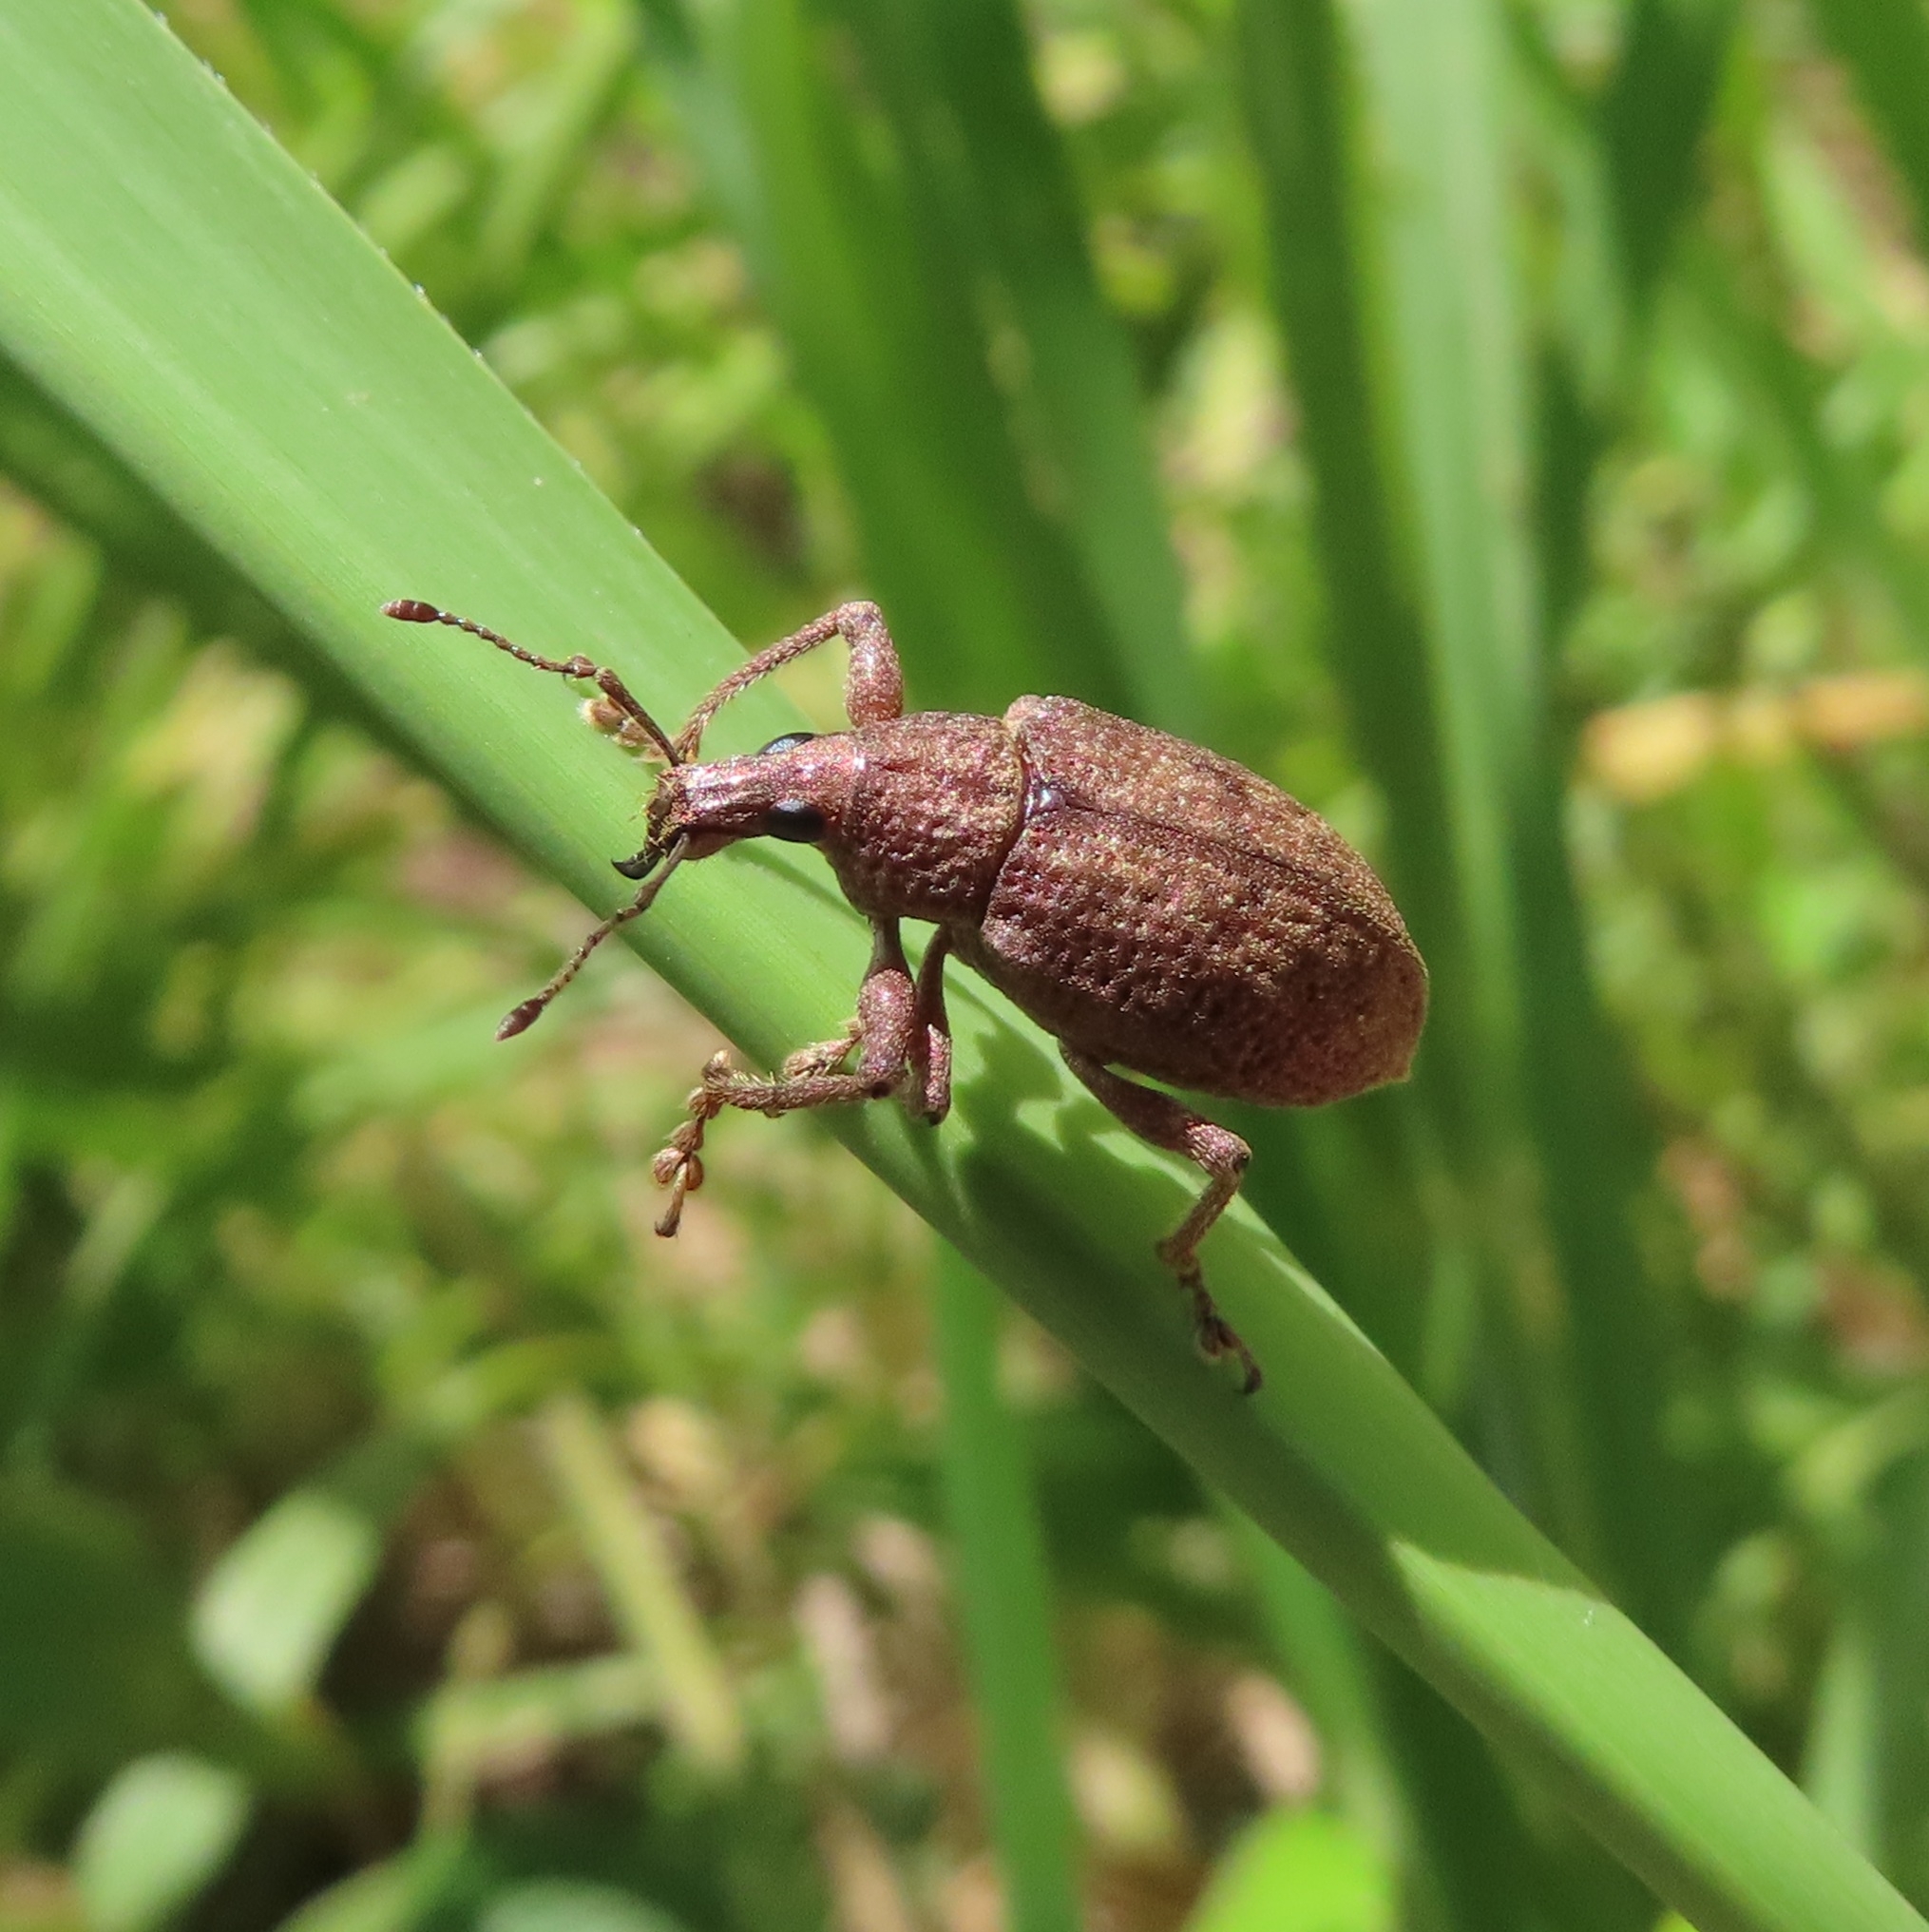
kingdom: Animalia
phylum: Arthropoda
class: Insecta
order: Coleoptera
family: Curculionidae
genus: Diaprepes
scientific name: Diaprepes maugei
